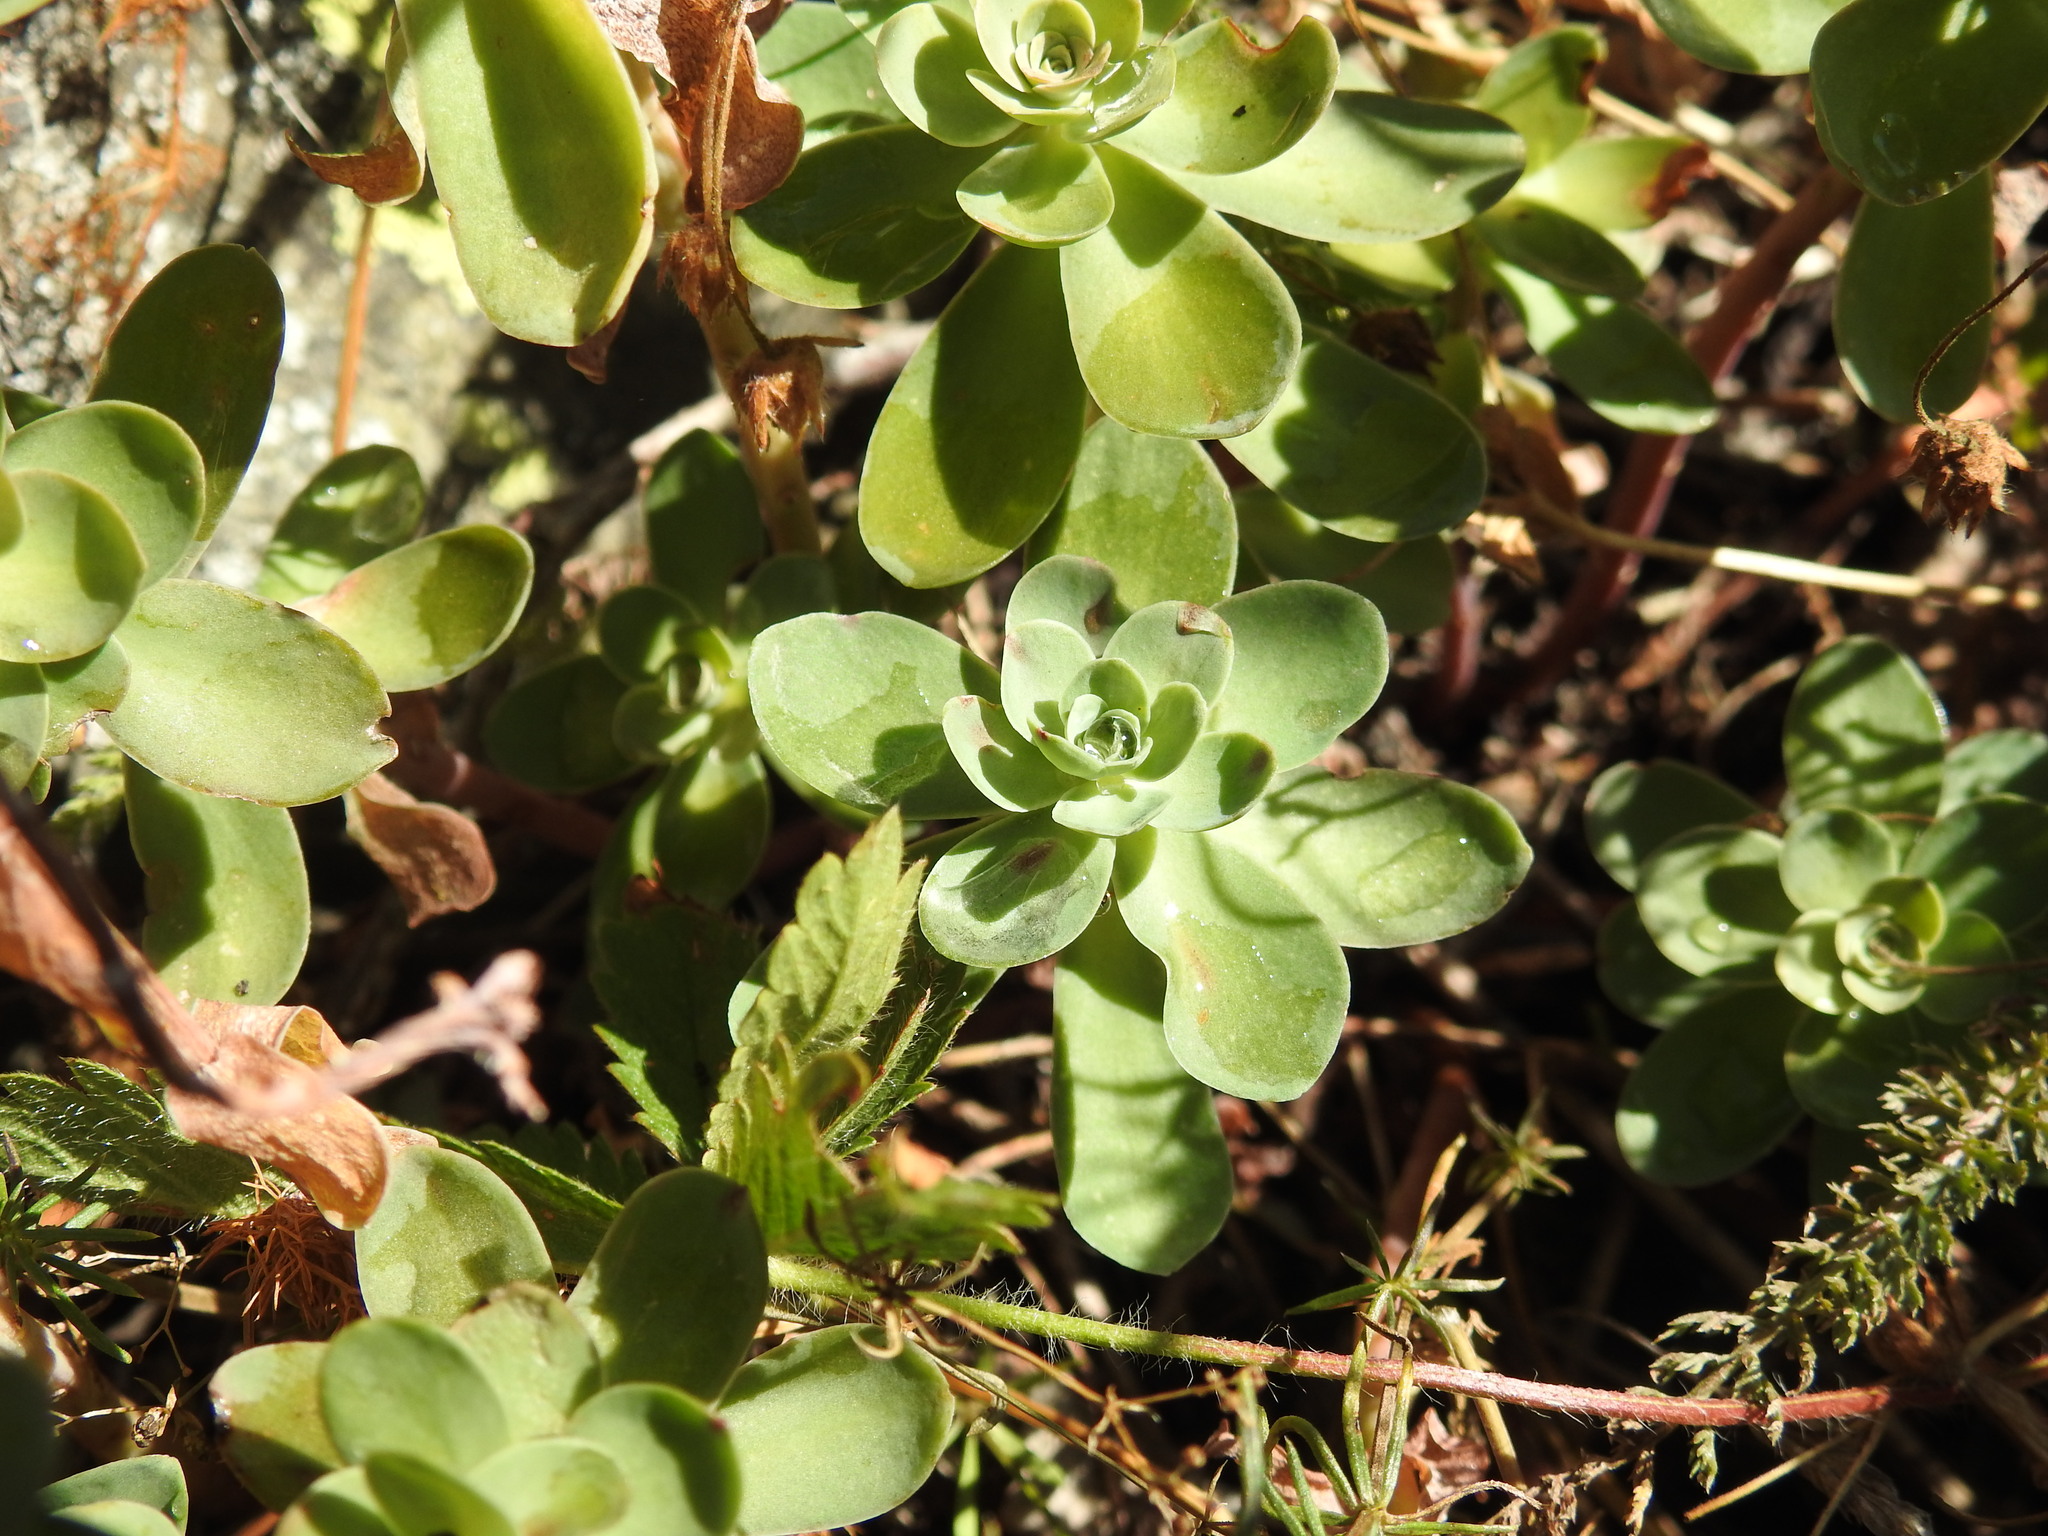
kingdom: Plantae
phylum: Tracheophyta
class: Magnoliopsida
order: Saxifragales
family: Crassulaceae
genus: Hylotelephium
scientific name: Hylotelephium anacampseros
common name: Love-restorer
